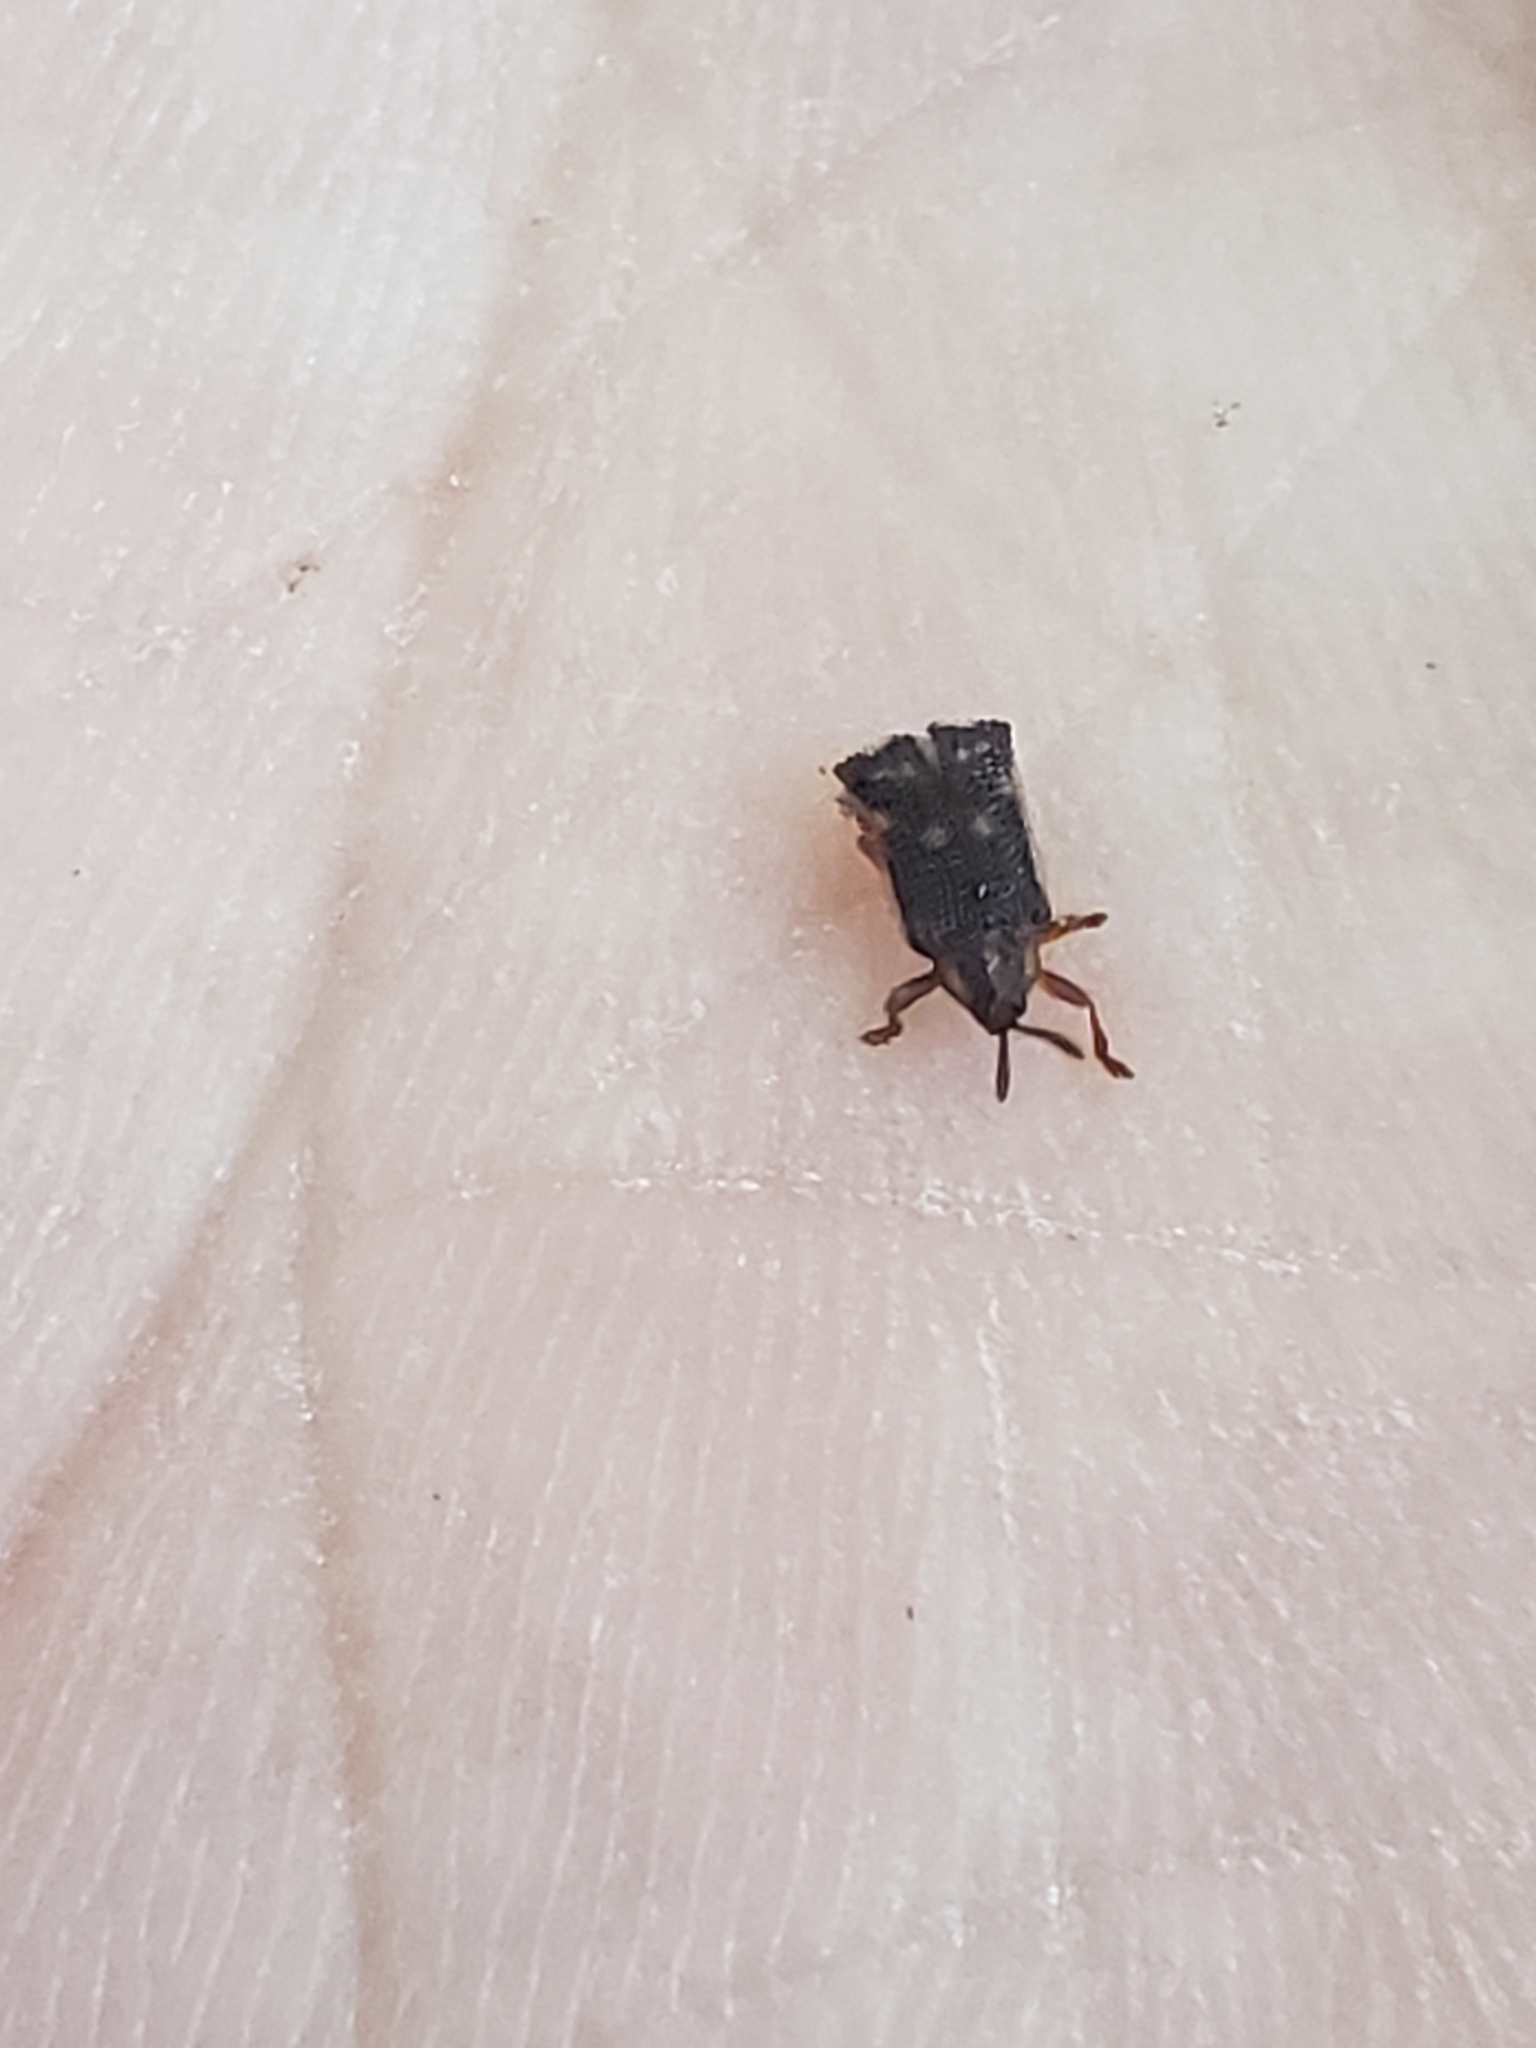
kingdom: Animalia
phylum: Arthropoda
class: Insecta
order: Coleoptera
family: Chrysomelidae
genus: Uroplata
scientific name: Uroplata girardi
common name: Lantana leafminer
